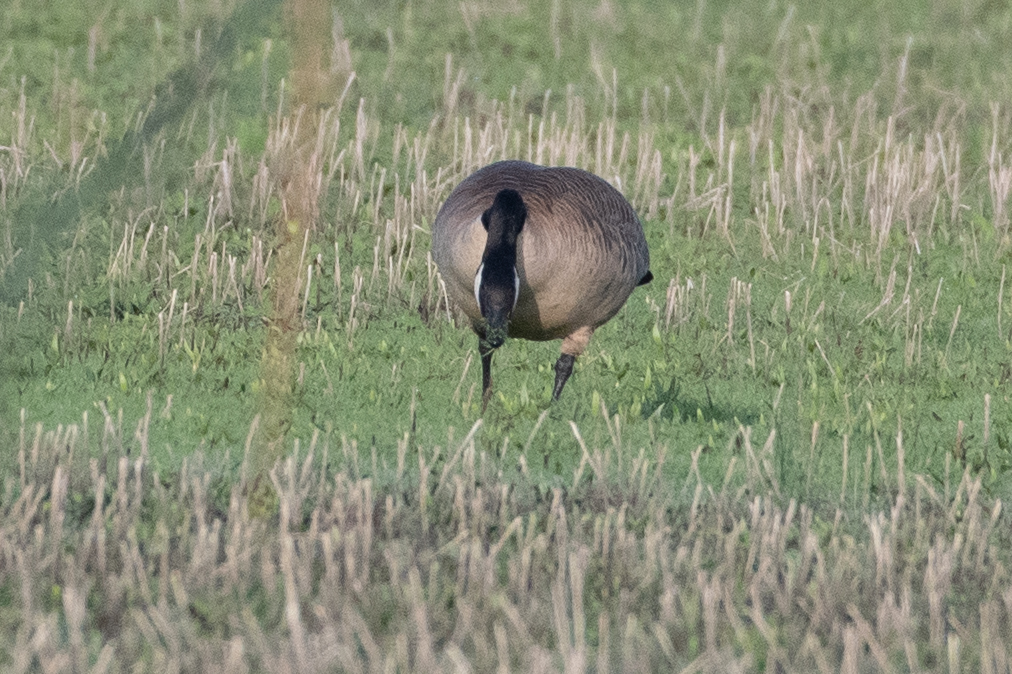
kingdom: Animalia
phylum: Chordata
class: Aves
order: Anseriformes
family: Anatidae
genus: Branta
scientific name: Branta canadensis
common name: Canada goose
